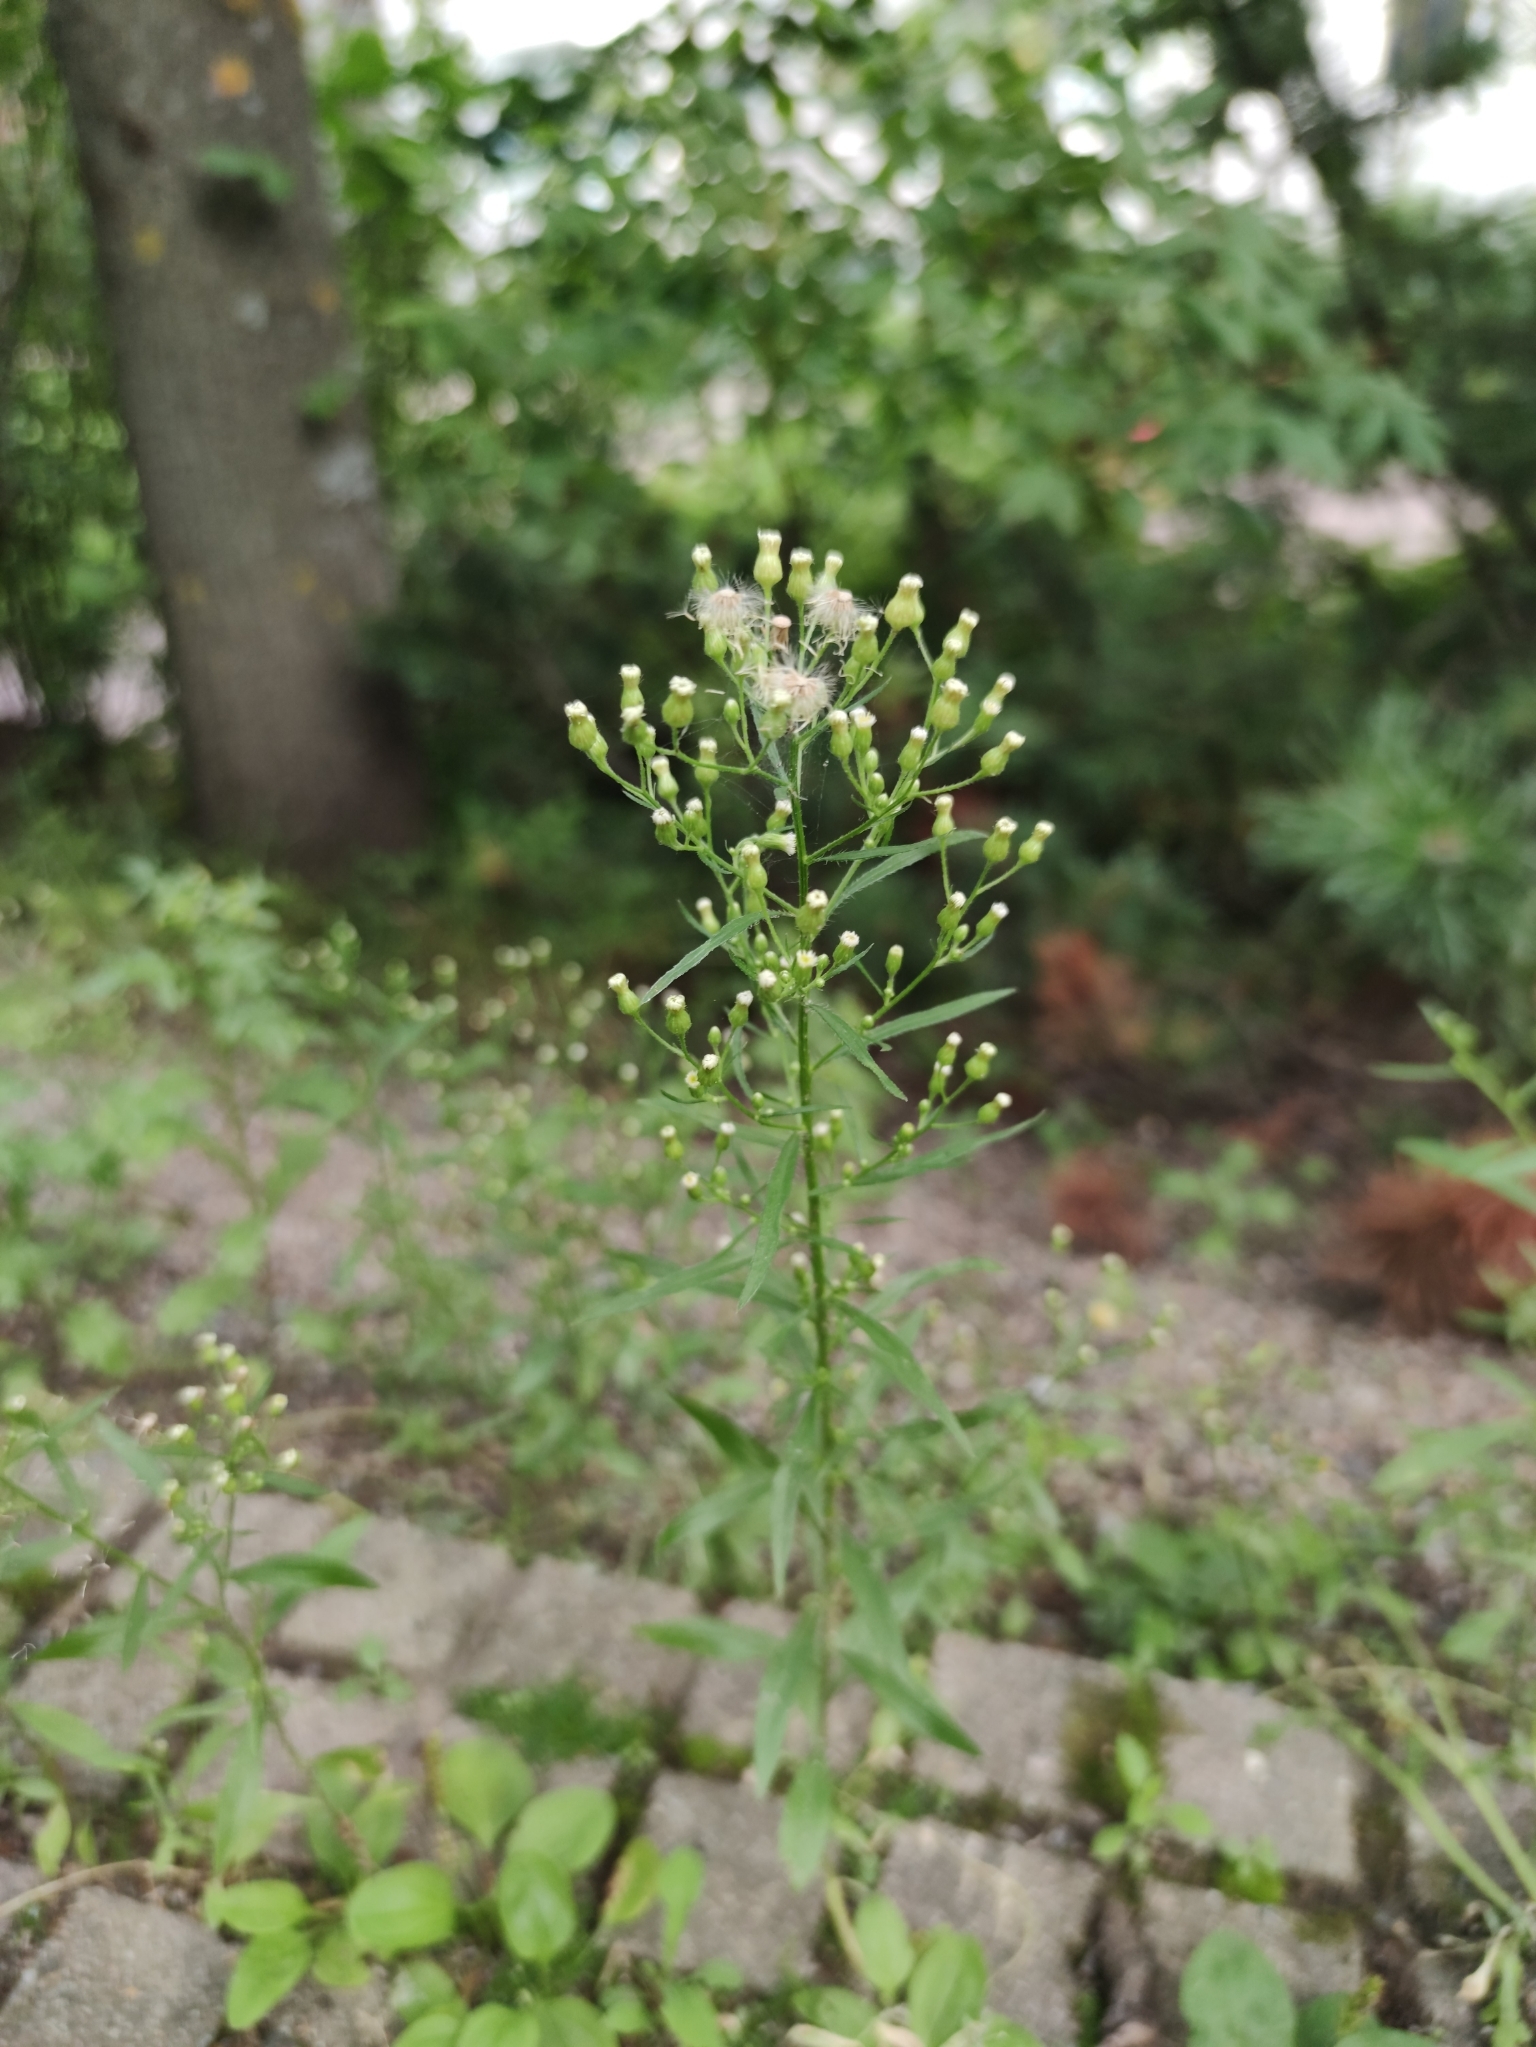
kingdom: Plantae
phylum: Tracheophyta
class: Magnoliopsida
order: Asterales
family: Asteraceae
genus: Erigeron
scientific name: Erigeron canadensis
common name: Canadian fleabane
